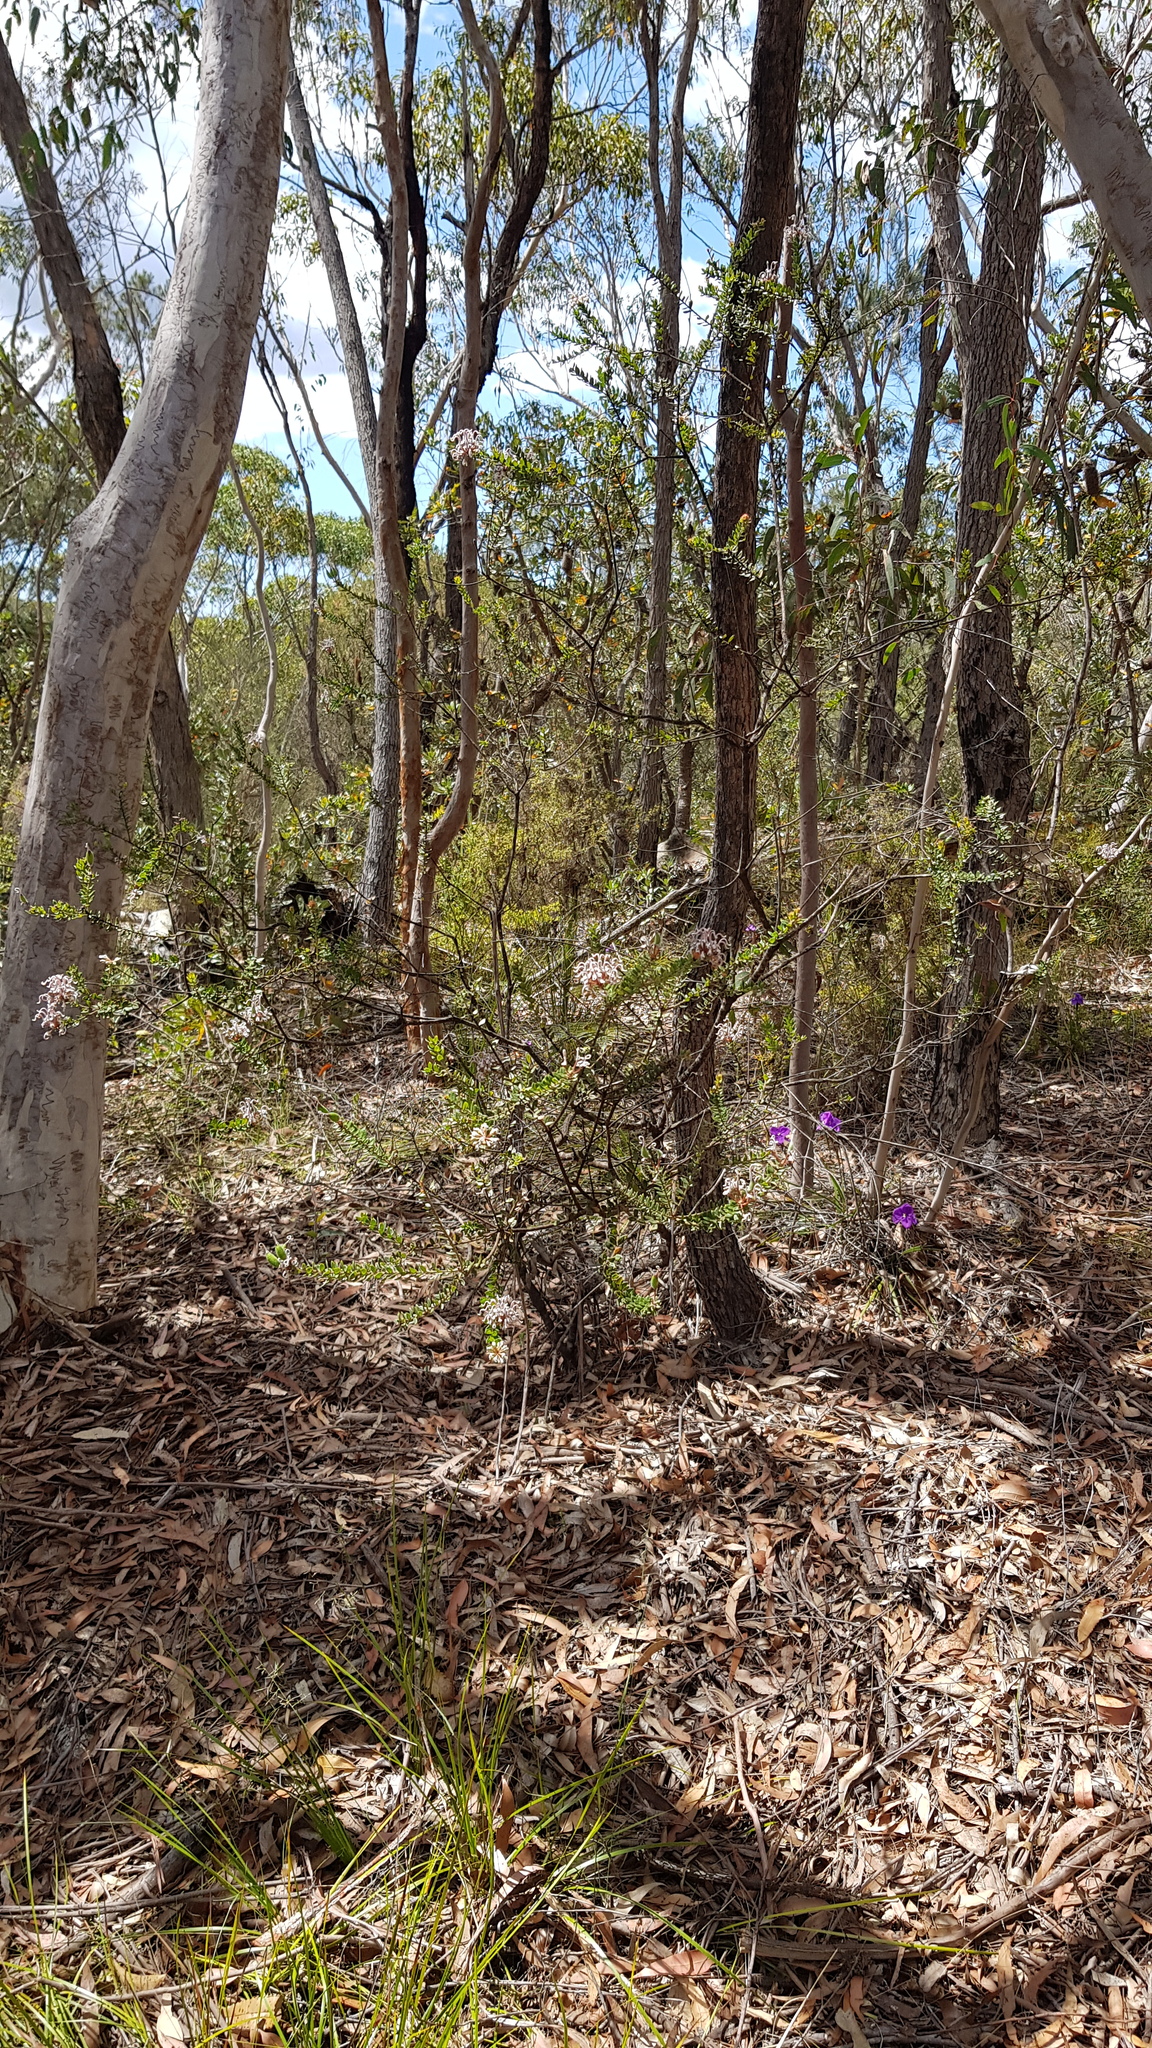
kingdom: Plantae
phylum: Tracheophyta
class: Magnoliopsida
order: Proteales
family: Proteaceae
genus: Grevillea
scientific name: Grevillea buxifolia
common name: Grey spiderflower
